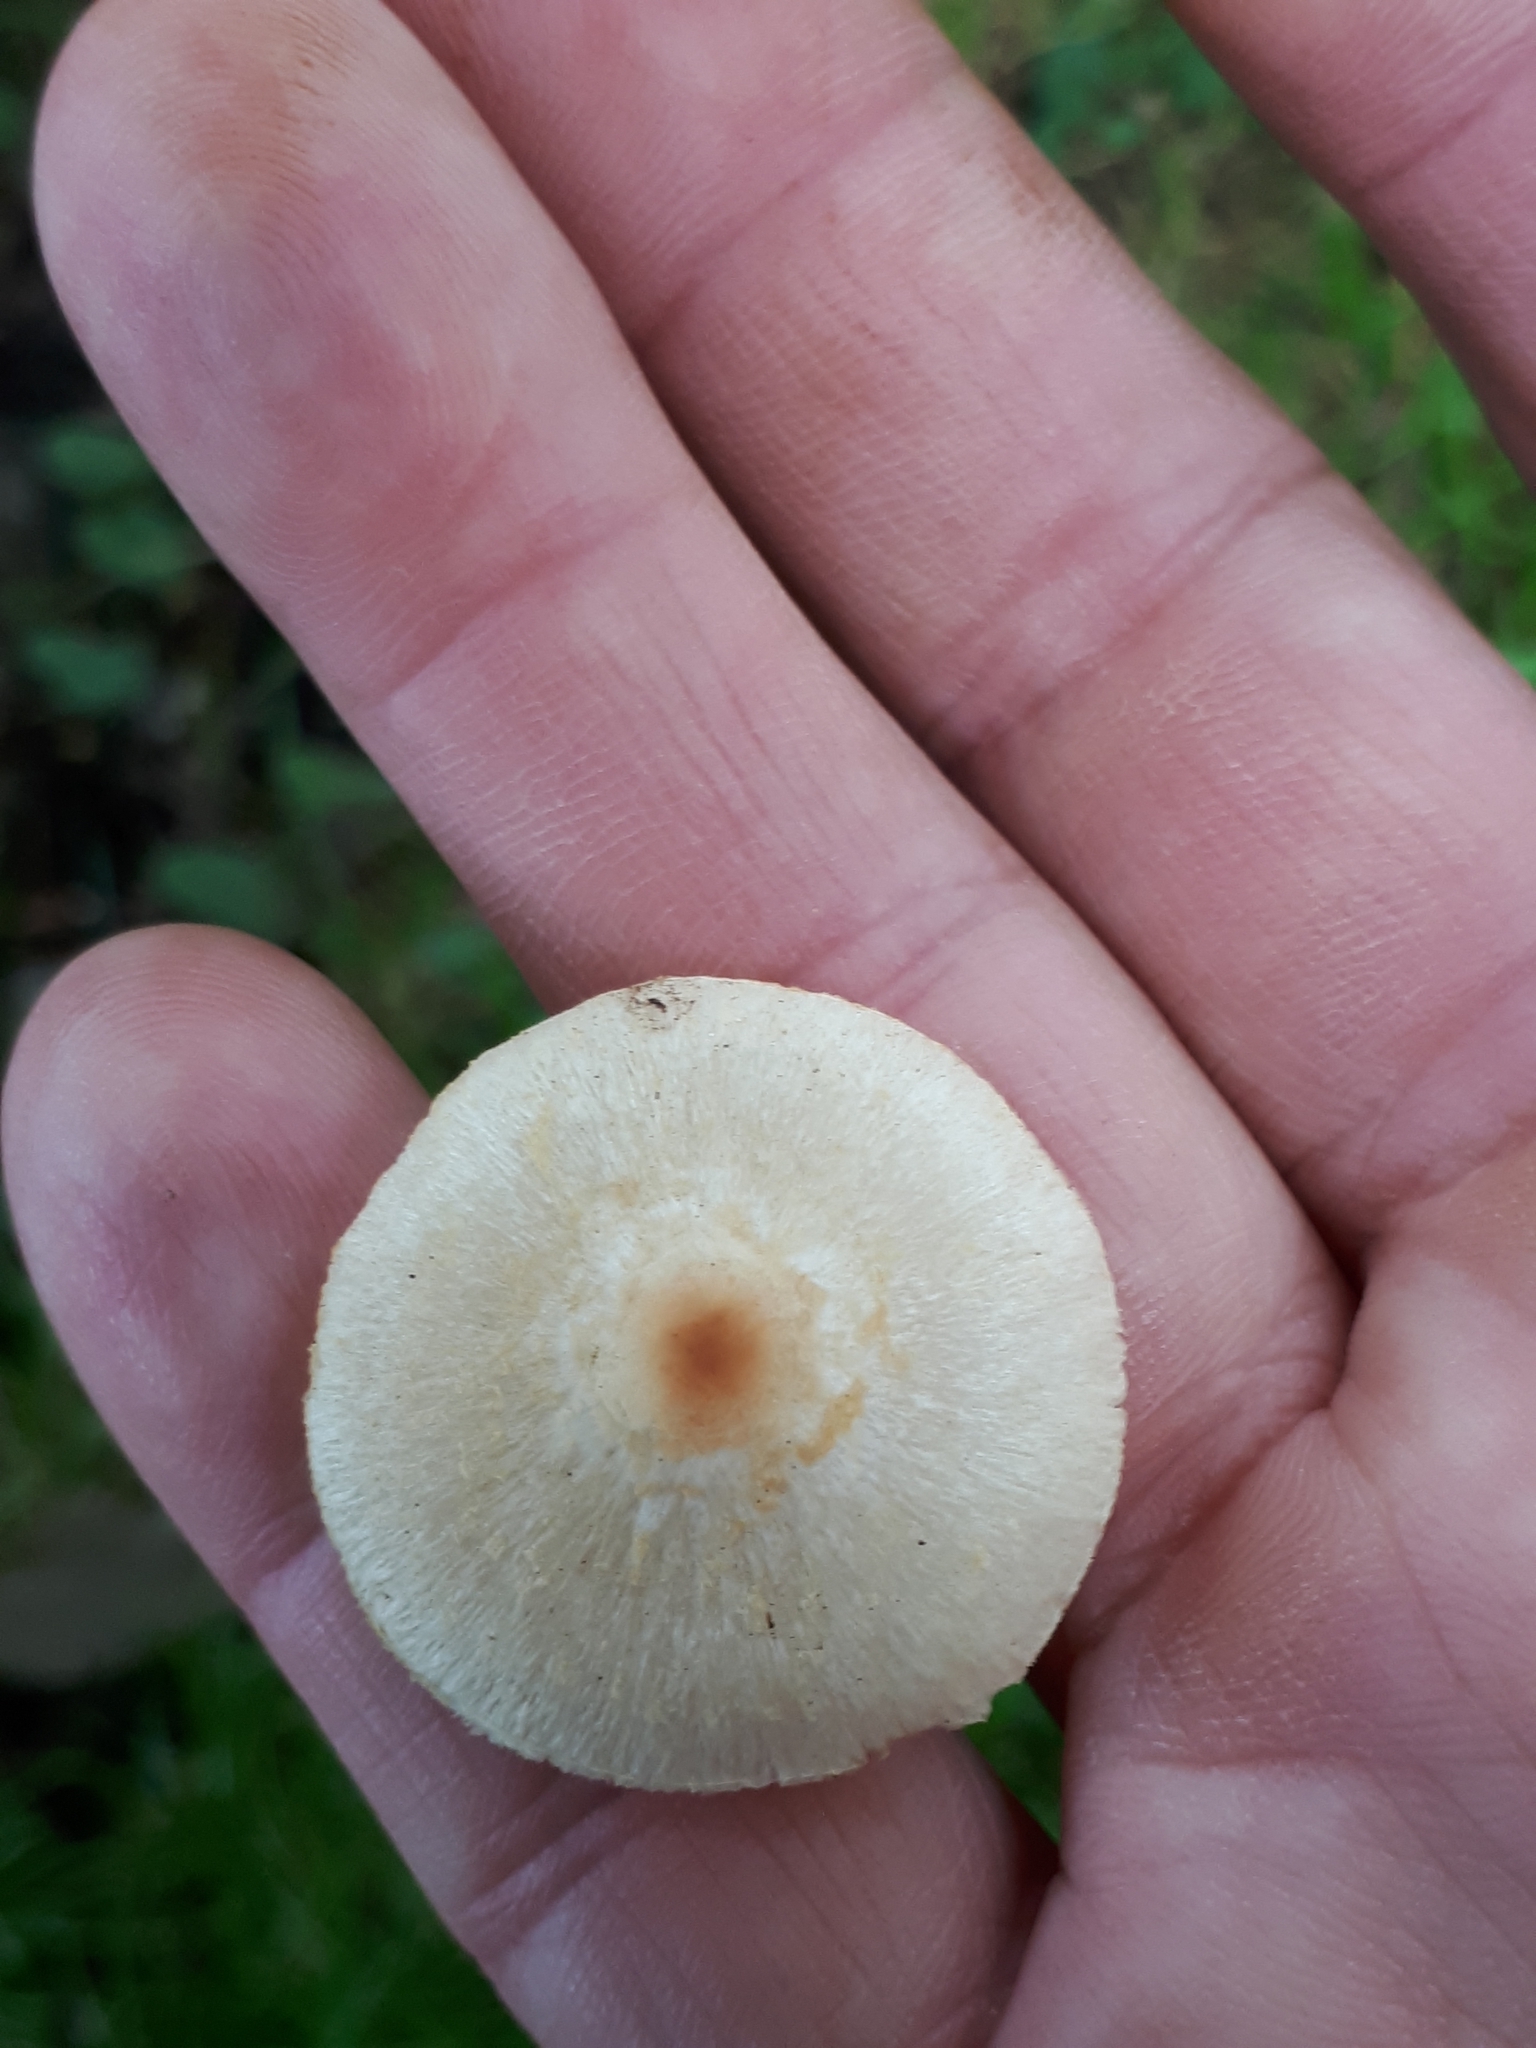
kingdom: Fungi
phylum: Basidiomycota
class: Agaricomycetes
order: Agaricales
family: Agaricaceae
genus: Lepiota
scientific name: Lepiota oreadiformis
